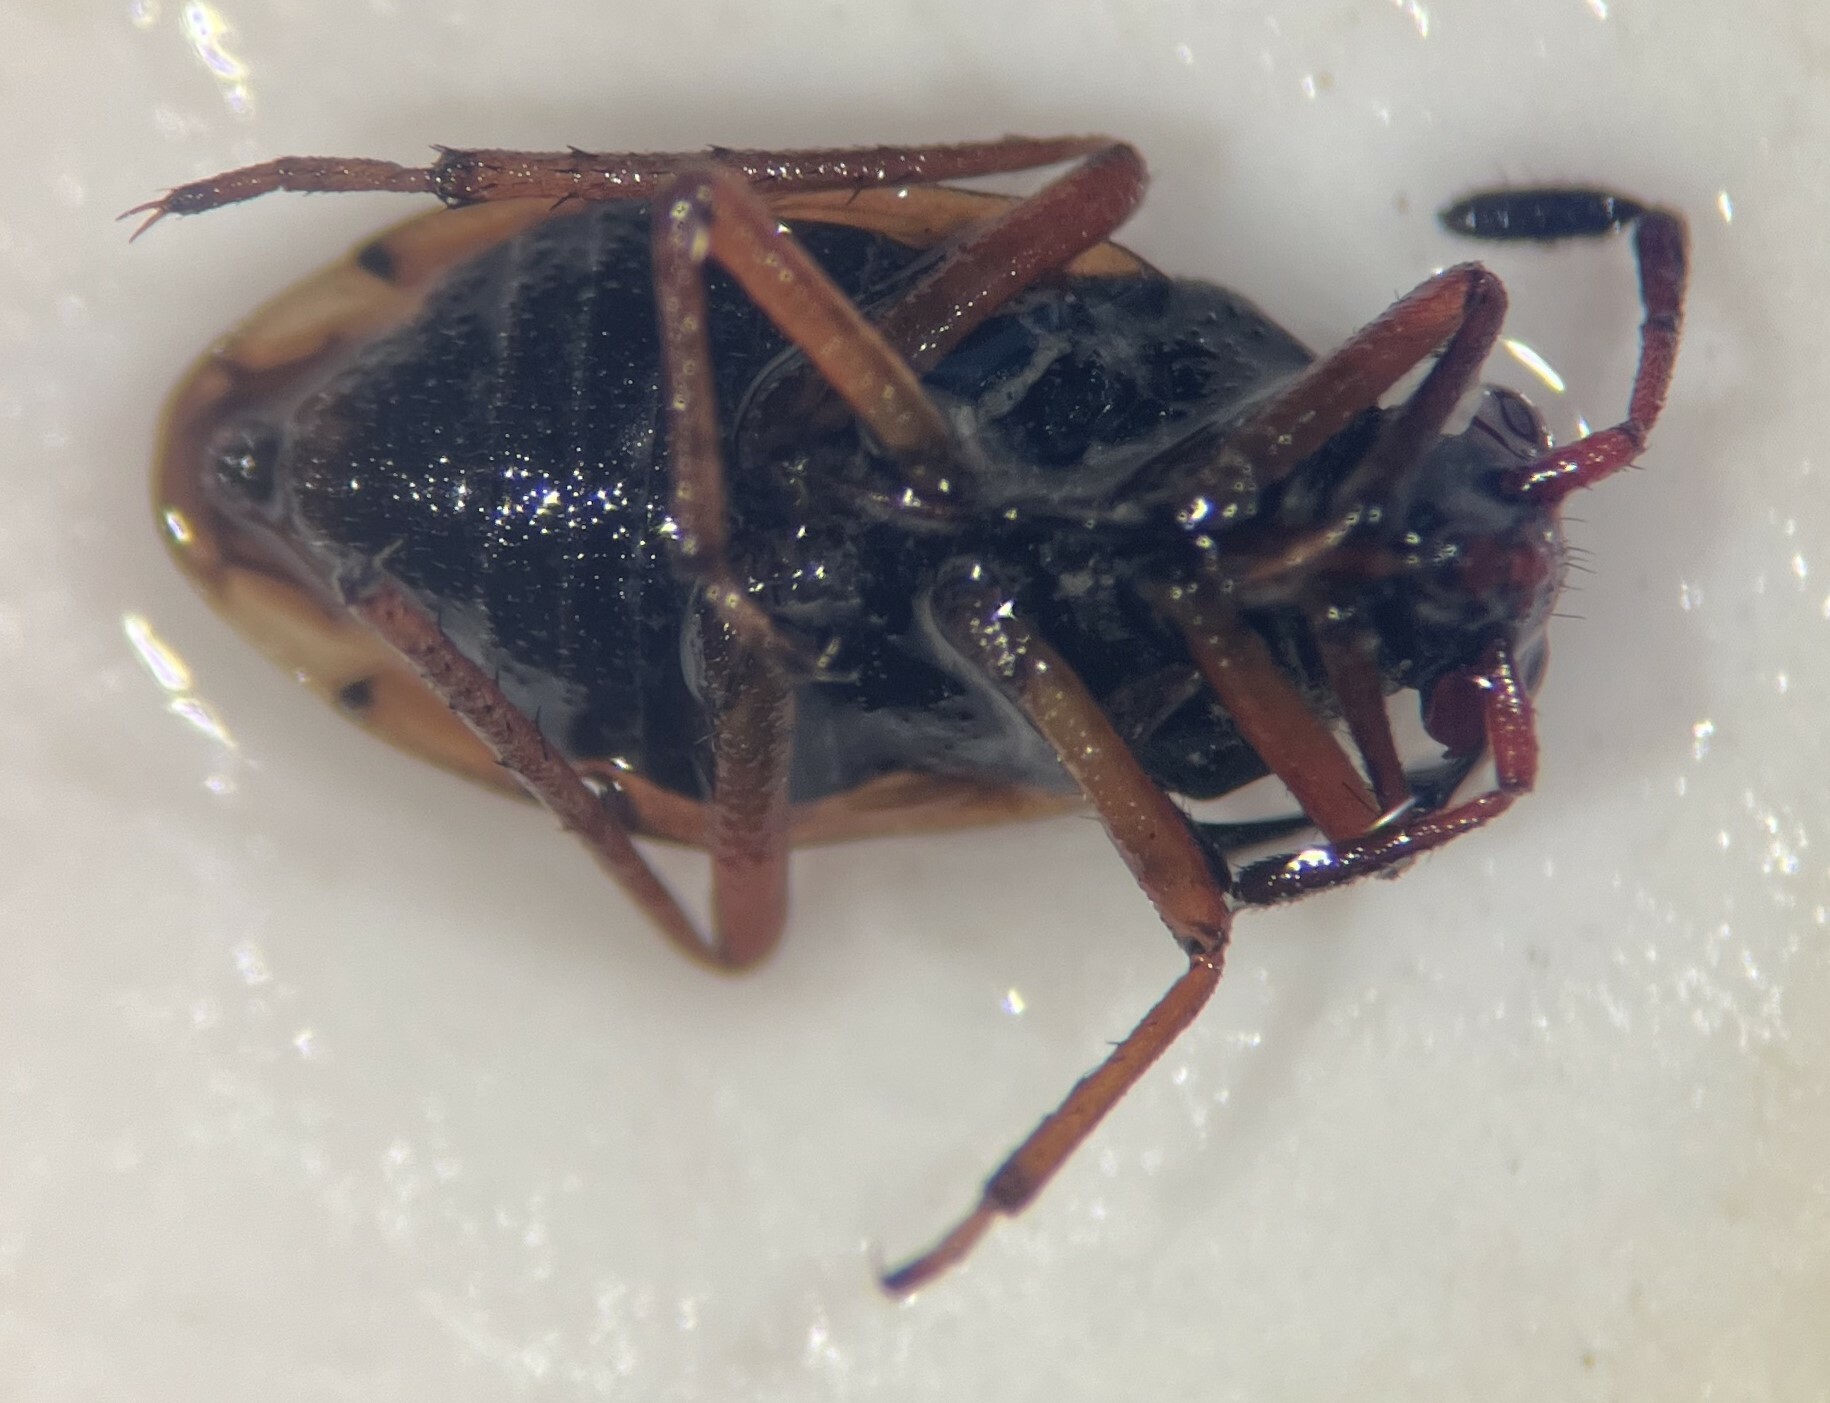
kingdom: Animalia
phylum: Arthropoda
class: Insecta
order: Hemiptera
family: Saldidae
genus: Ioscytus
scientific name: Ioscytus politus
